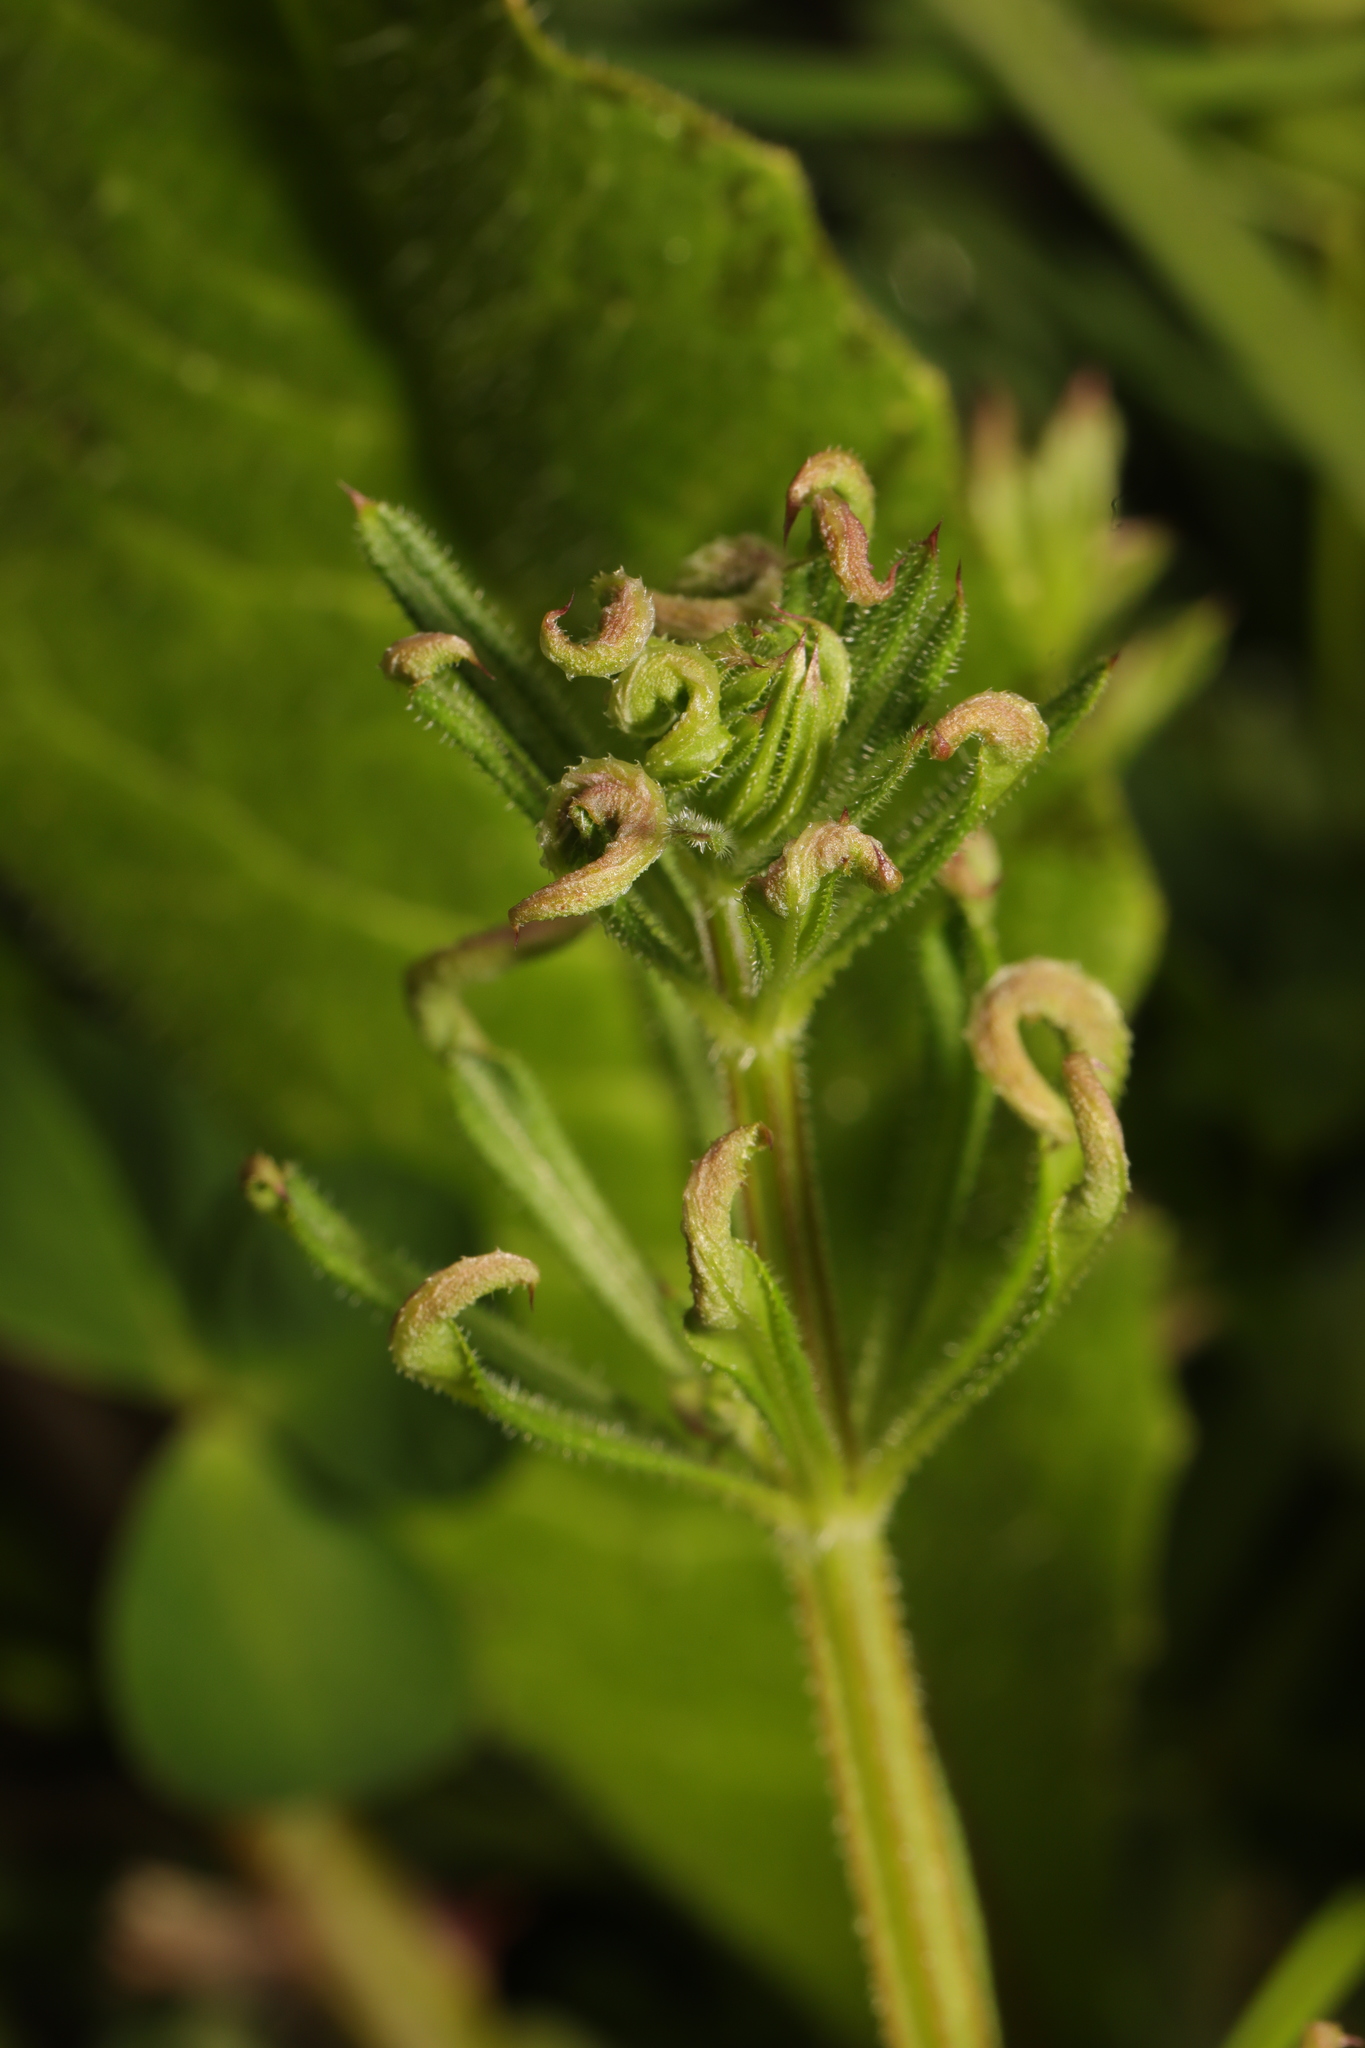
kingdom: Animalia
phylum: Arthropoda
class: Arachnida
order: Trombidiformes
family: Eriophyidae
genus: Cecidophyes
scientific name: Cecidophyes rouhollahi
